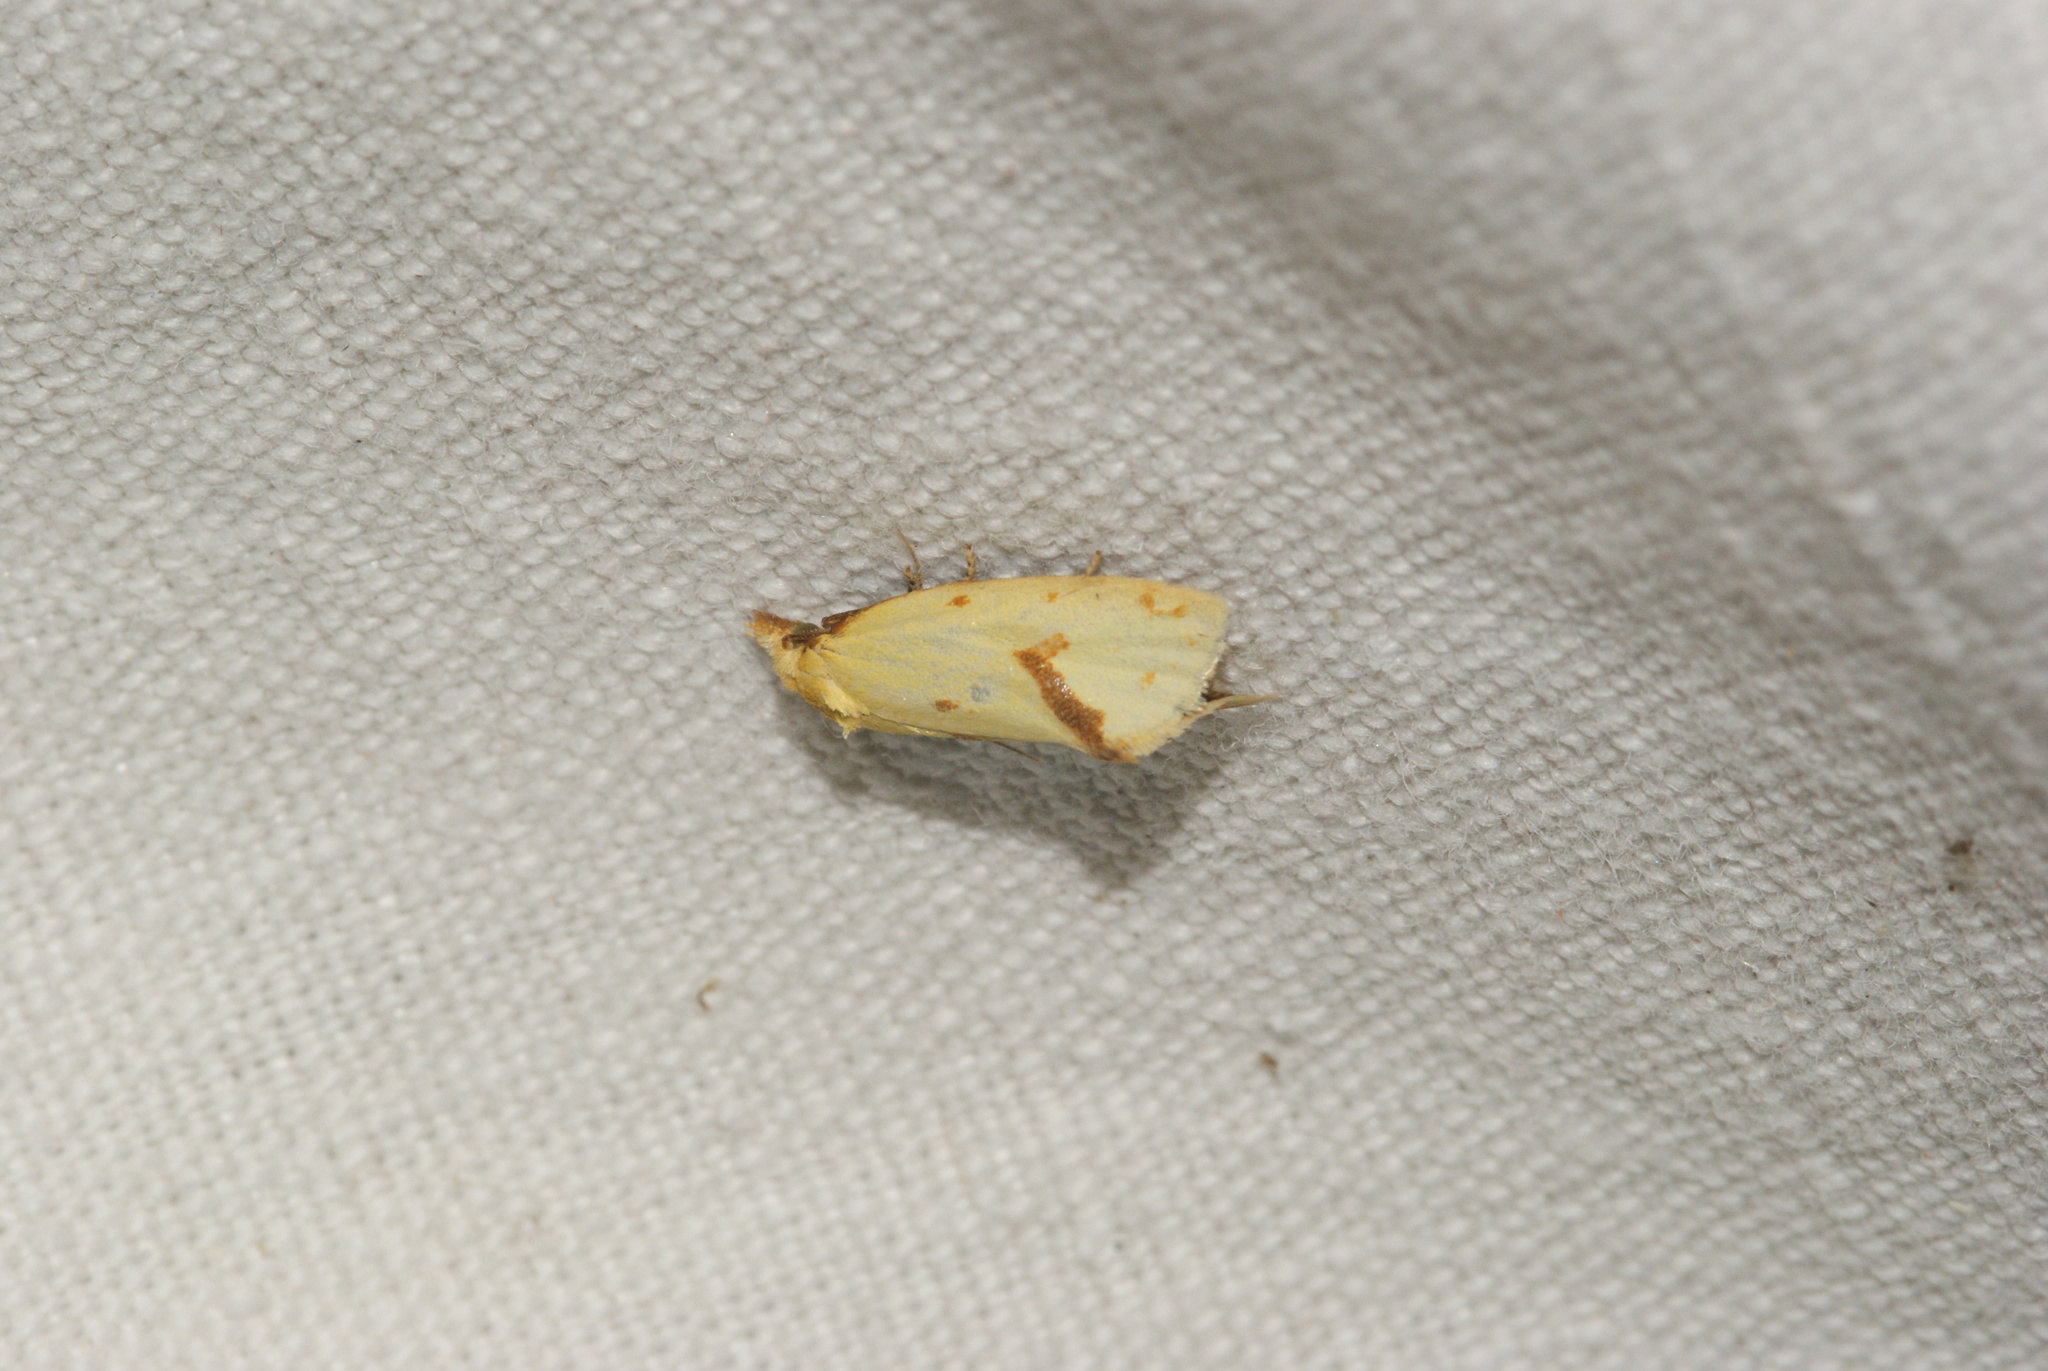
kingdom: Animalia
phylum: Arthropoda
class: Insecta
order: Lepidoptera
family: Tortricidae
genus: Agapeta
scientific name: Agapeta hamana
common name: Common yellow conch
